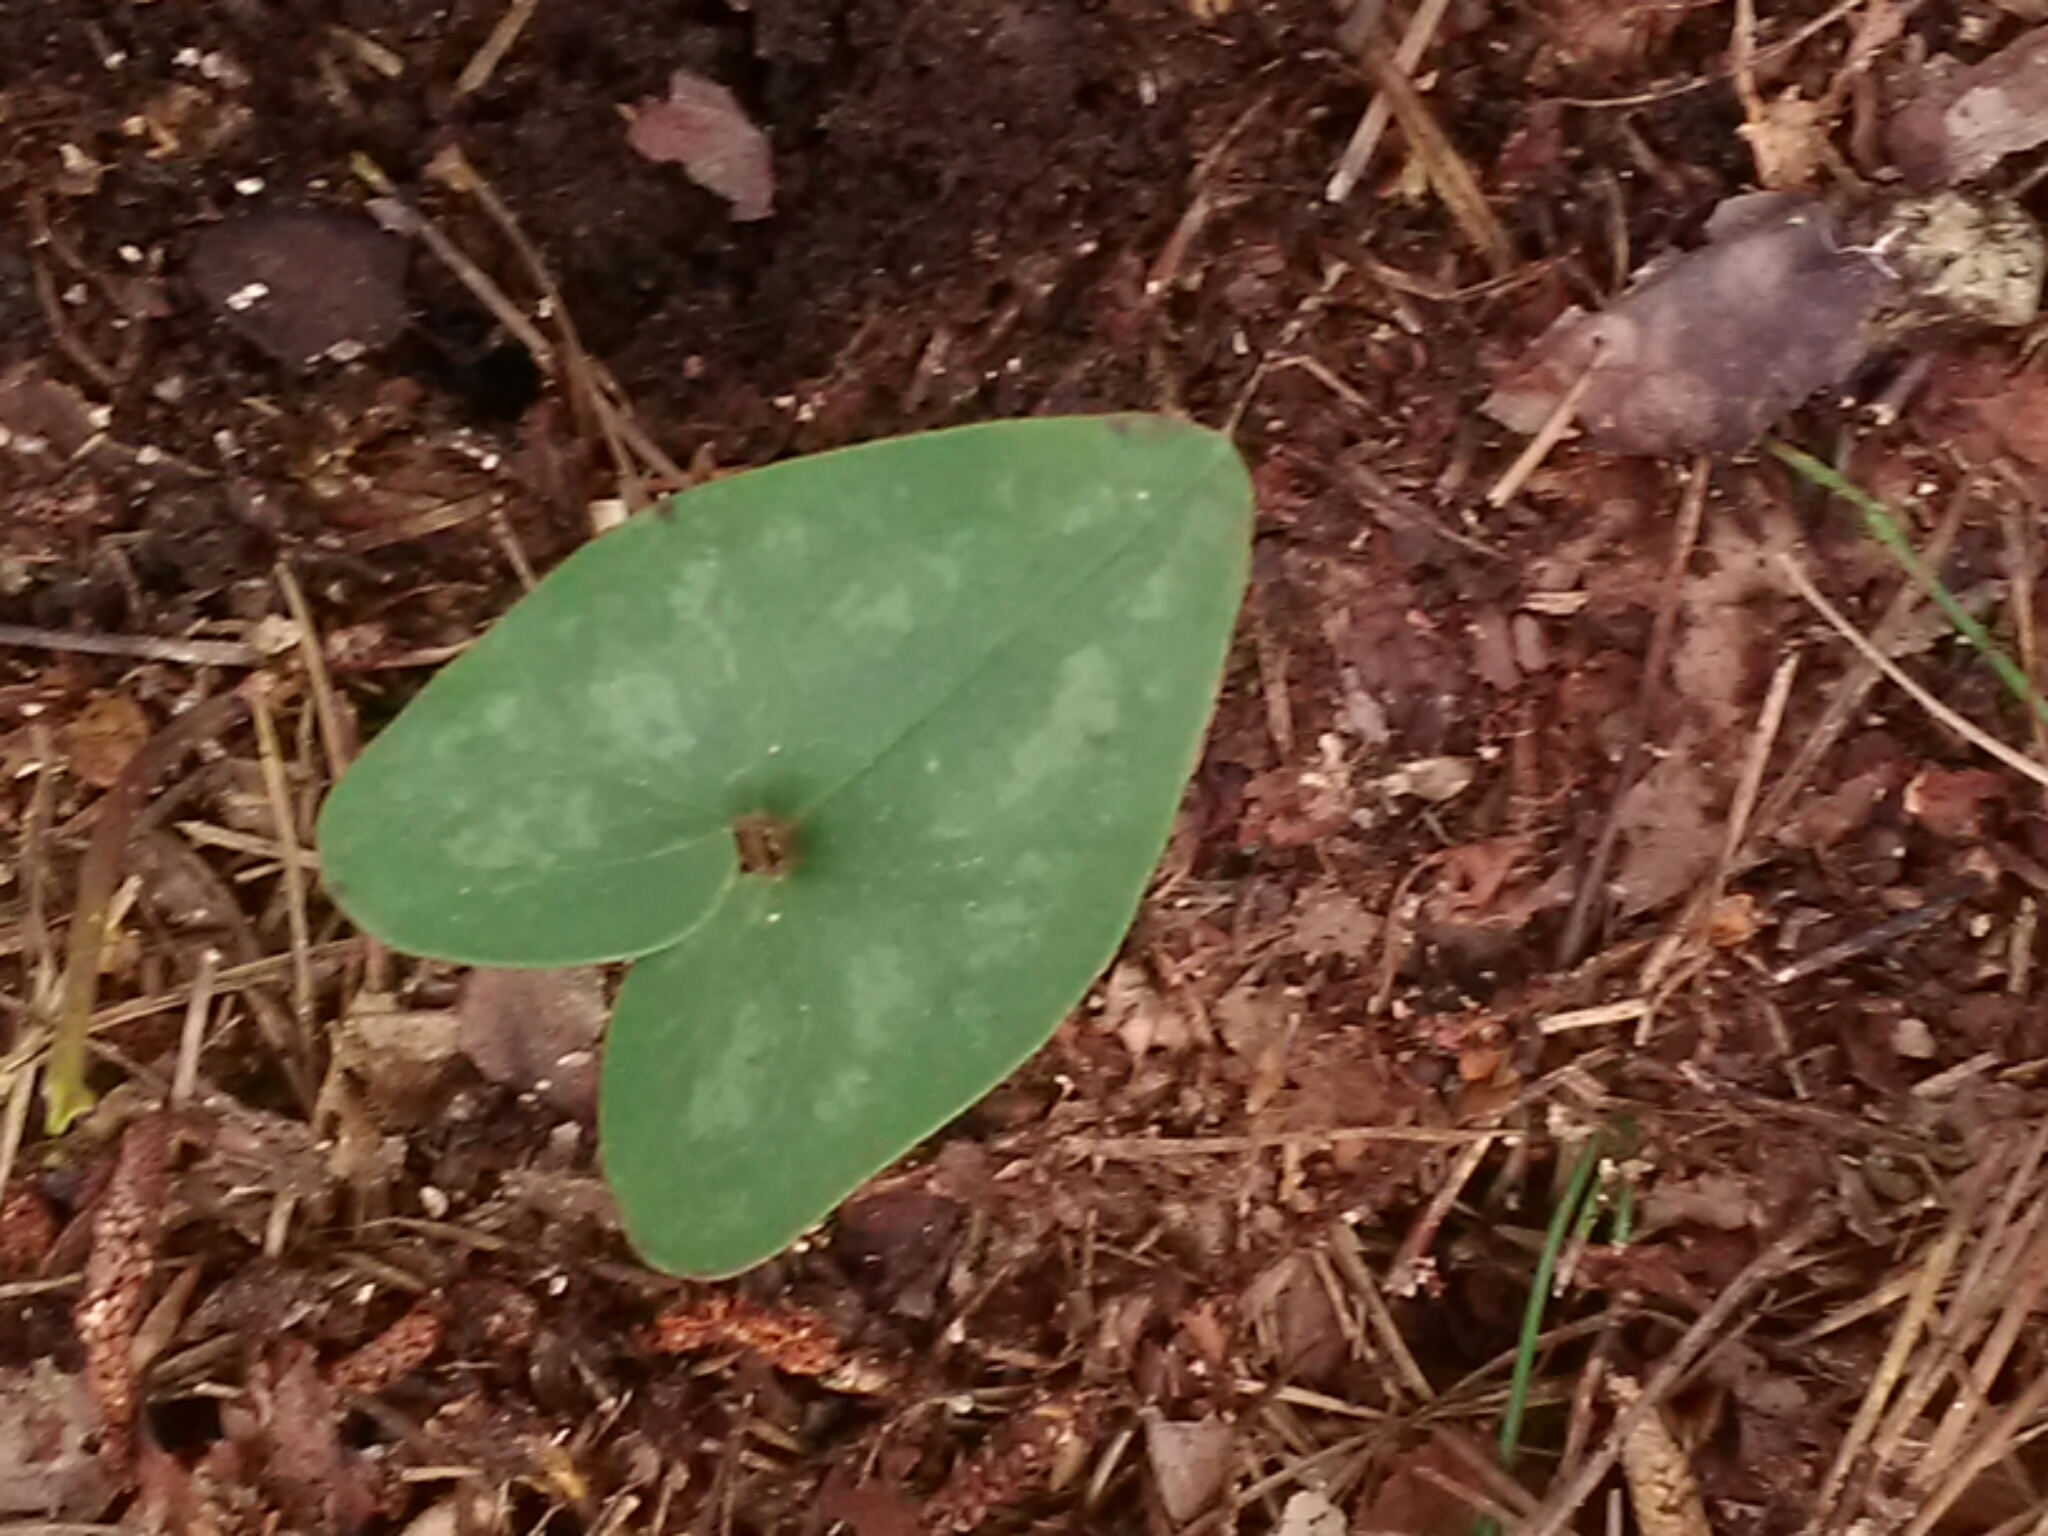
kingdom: Plantae
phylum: Tracheophyta
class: Magnoliopsida
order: Piperales
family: Aristolochiaceae
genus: Hexastylis
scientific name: Hexastylis arifolia
